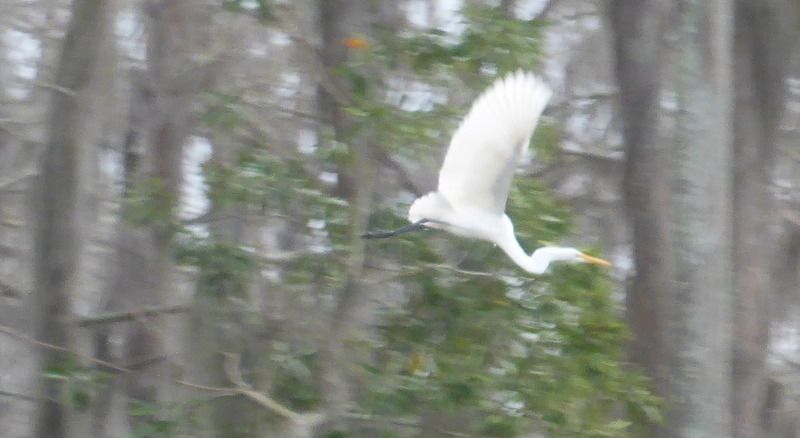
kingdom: Animalia
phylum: Chordata
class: Aves
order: Pelecaniformes
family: Ardeidae
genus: Ardea
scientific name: Ardea alba
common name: Great egret
